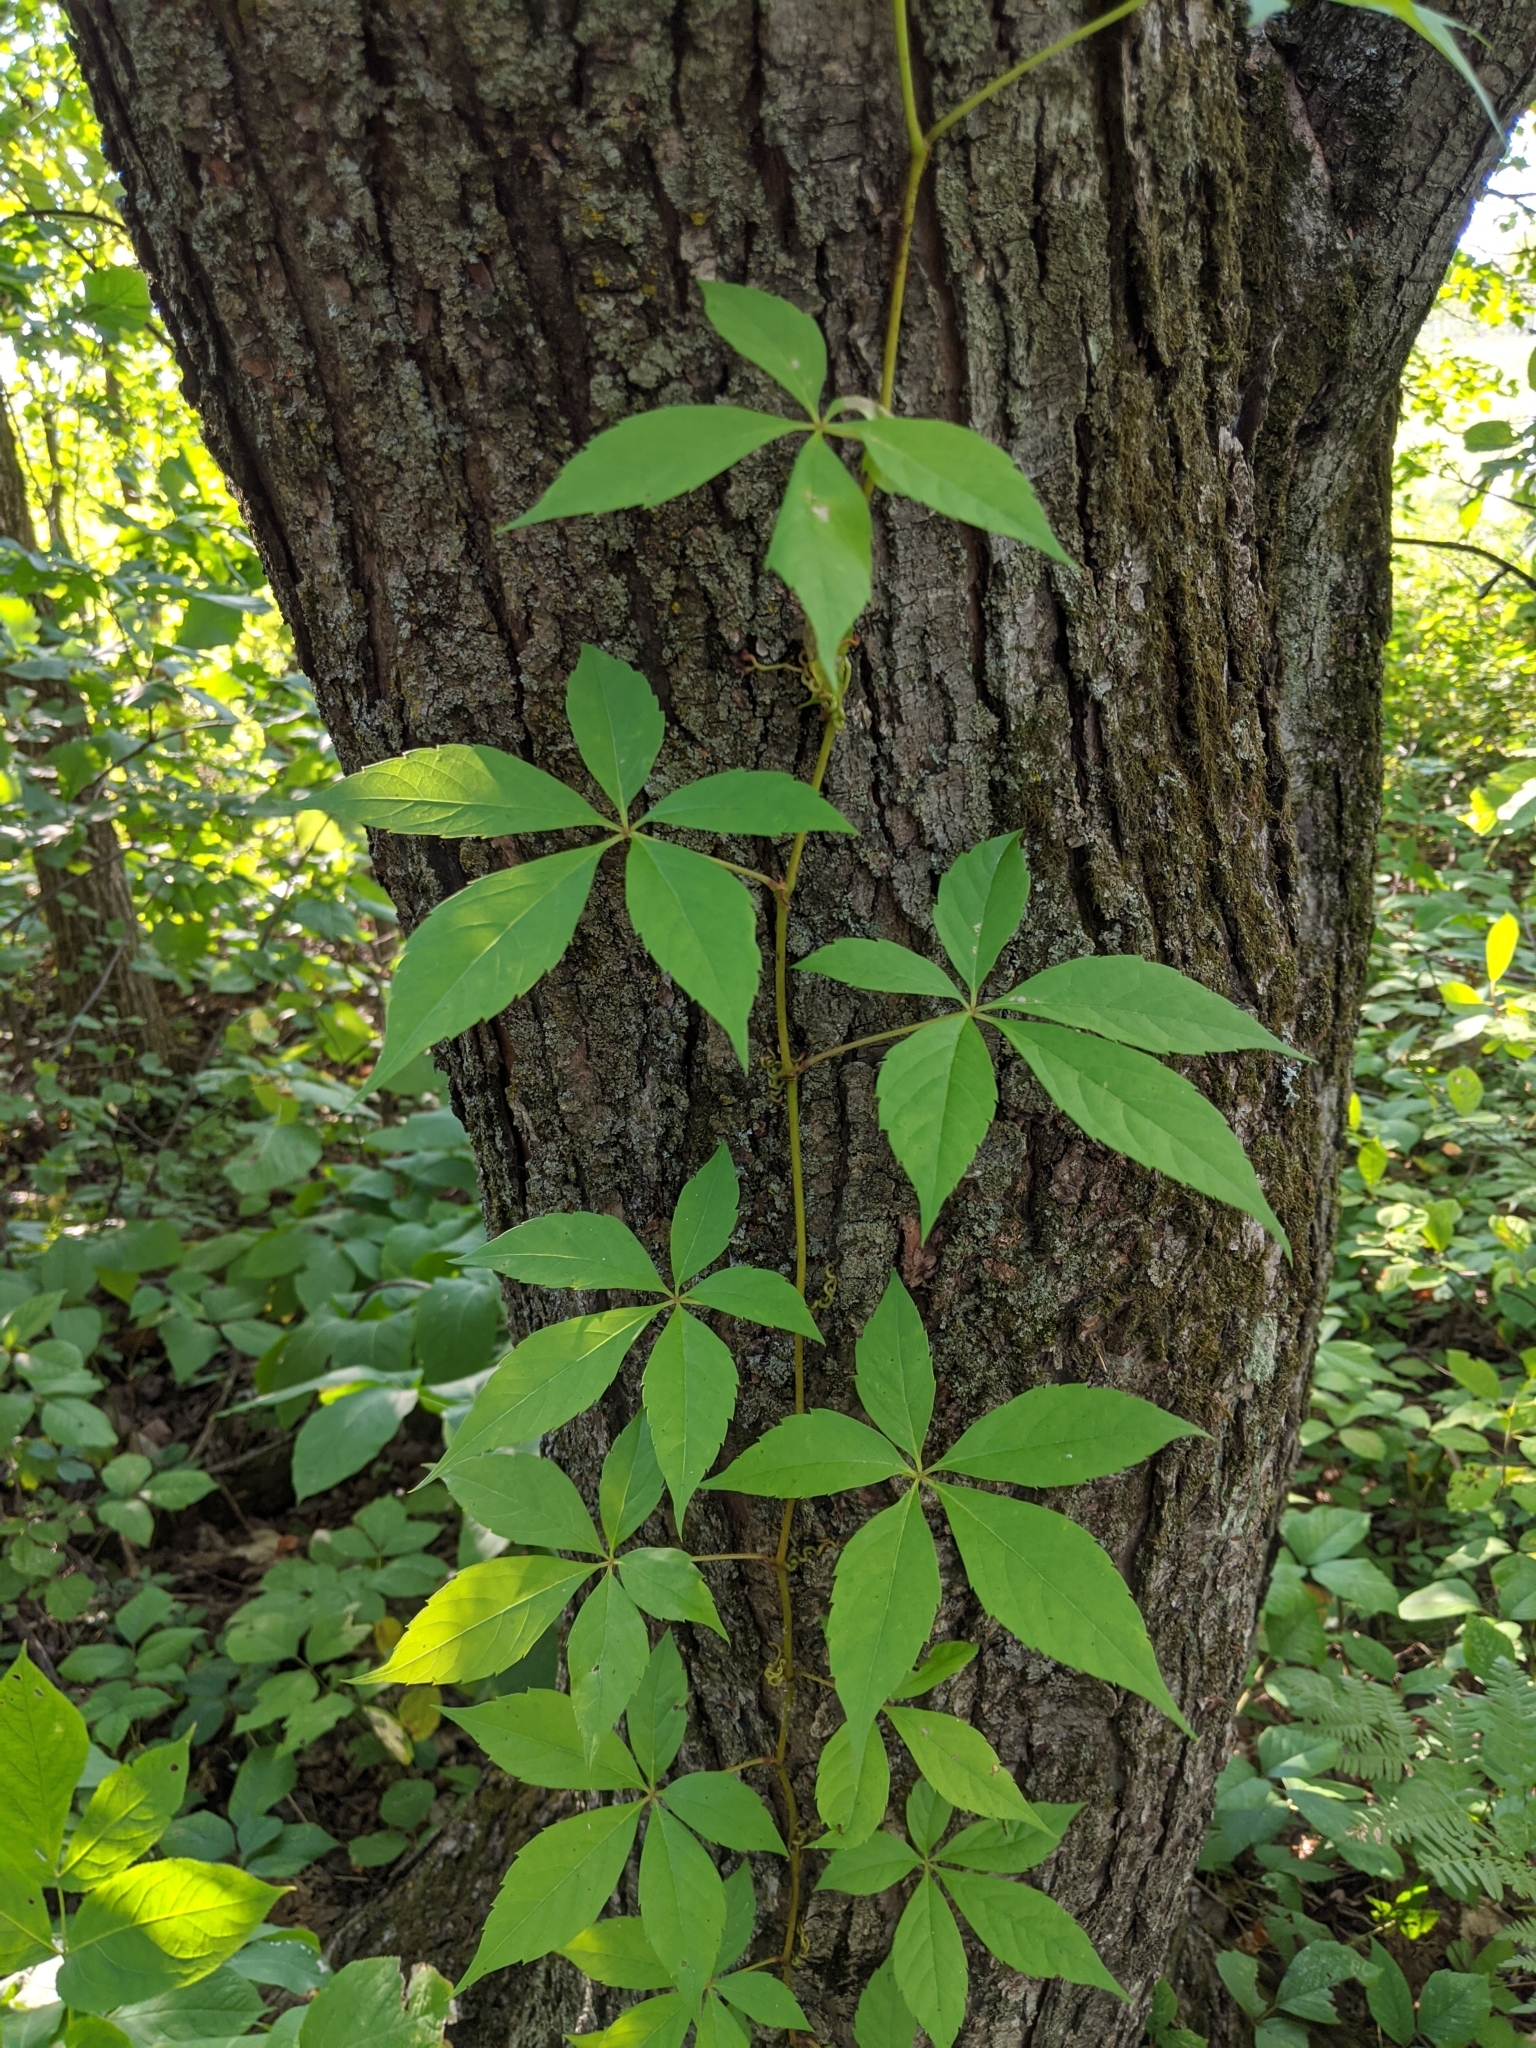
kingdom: Plantae
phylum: Tracheophyta
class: Magnoliopsida
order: Vitales
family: Vitaceae
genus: Parthenocissus
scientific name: Parthenocissus quinquefolia
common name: Virginia-creeper
